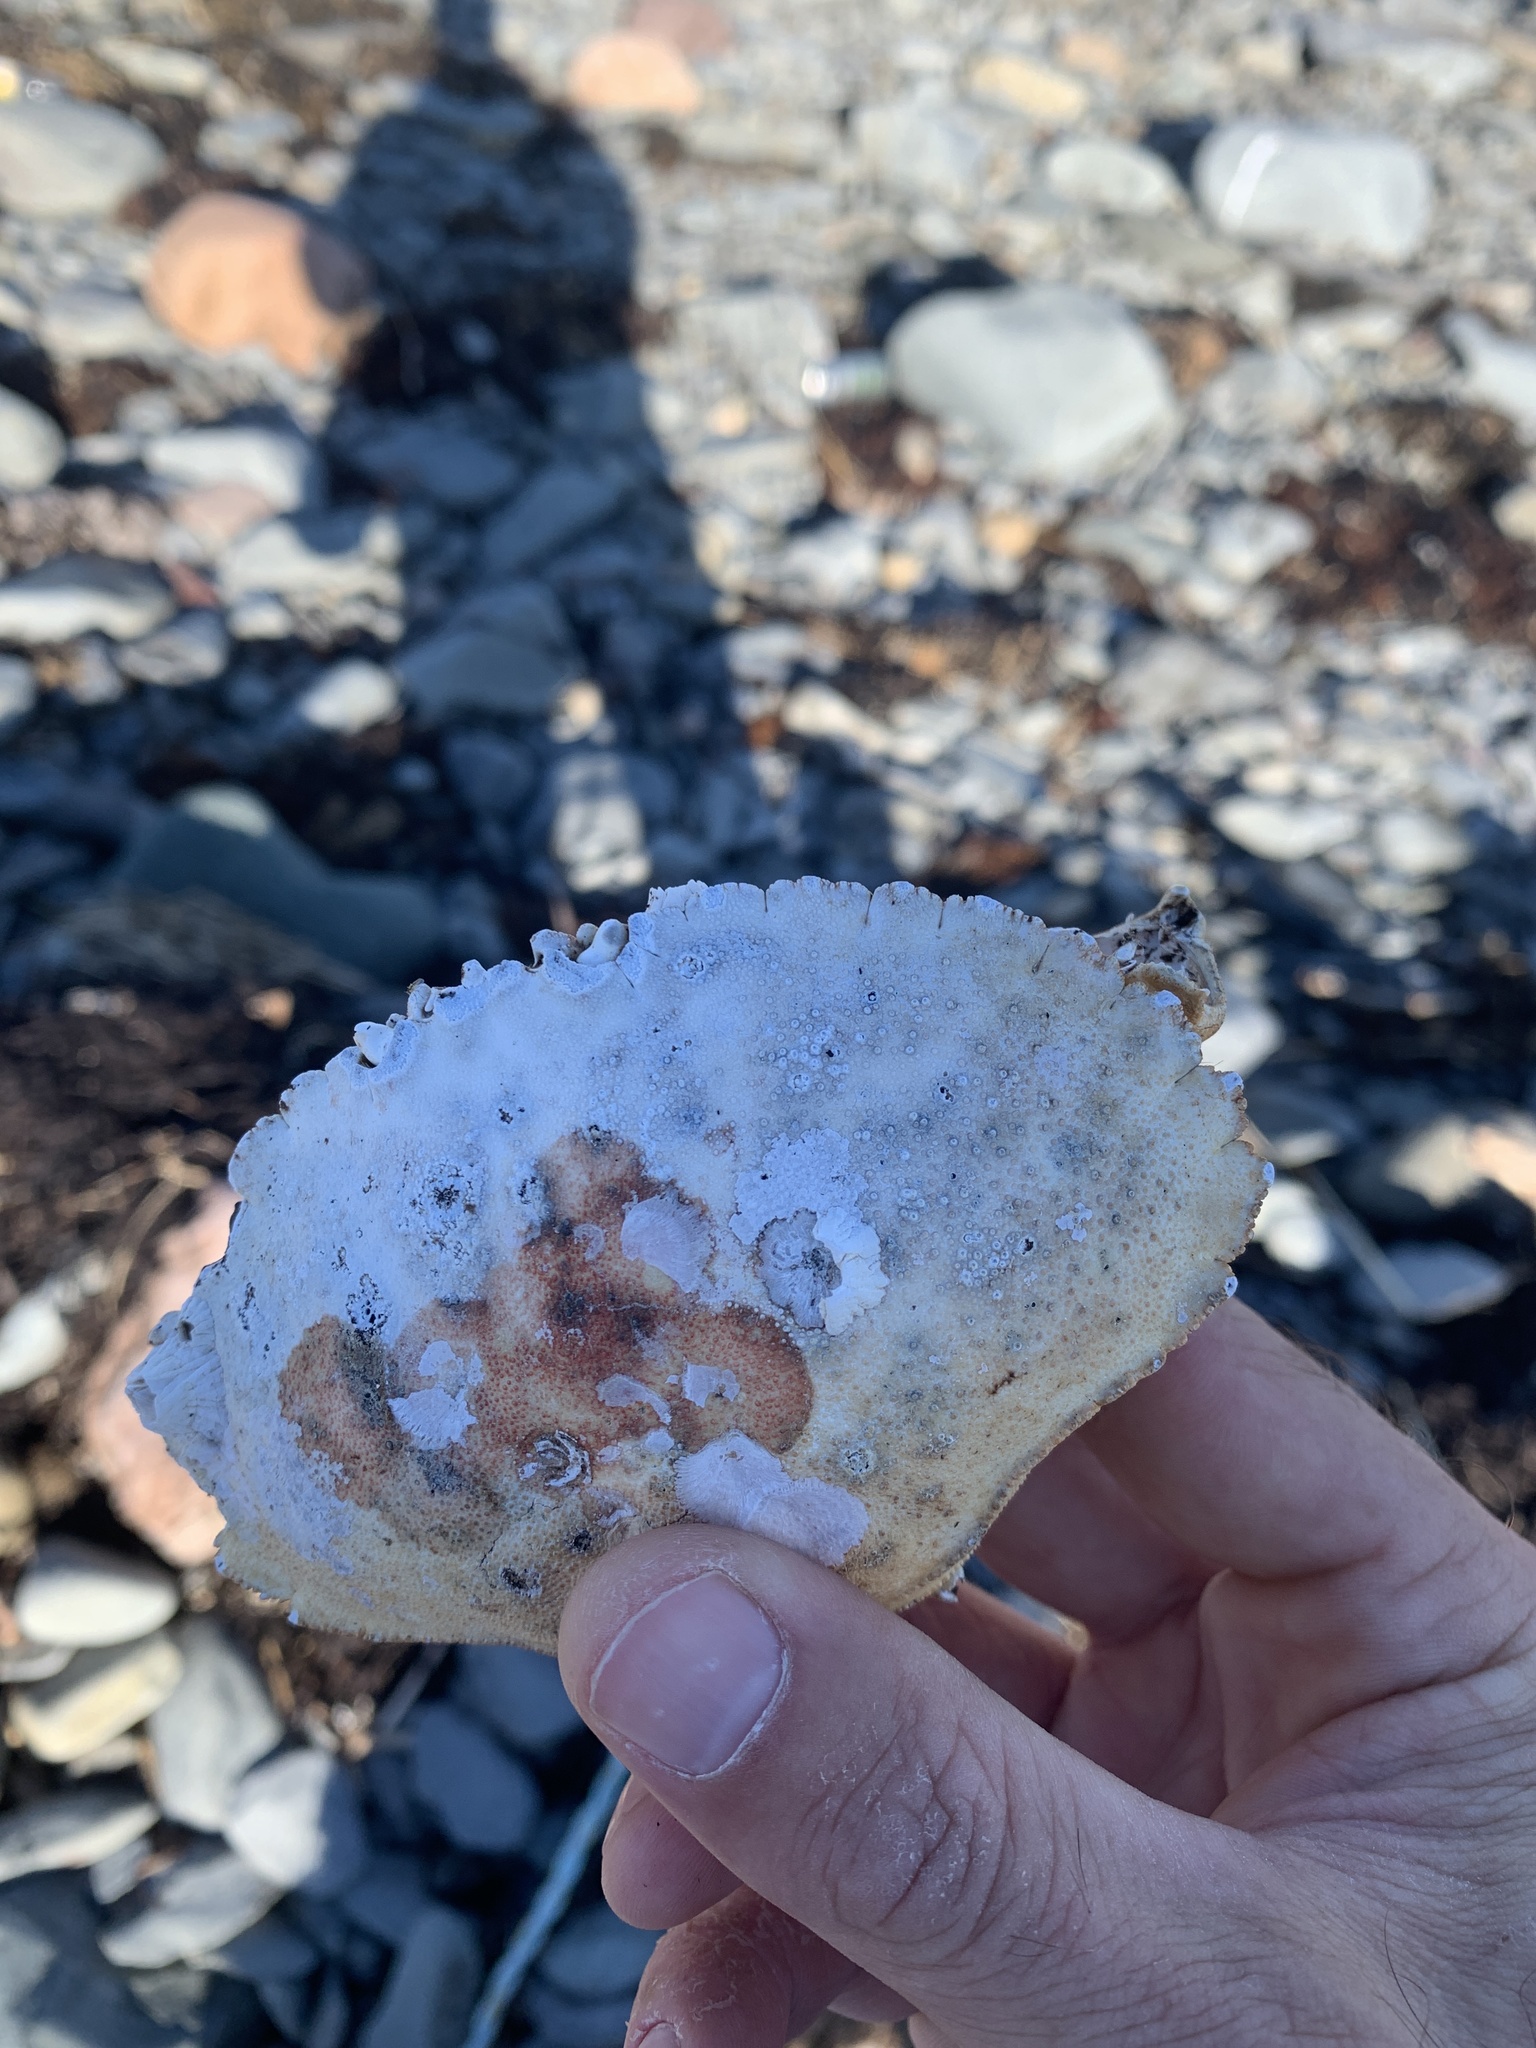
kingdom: Animalia
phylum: Arthropoda
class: Malacostraca
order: Decapoda
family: Cancridae
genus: Cancer
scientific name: Cancer borealis
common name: Jonah crab
